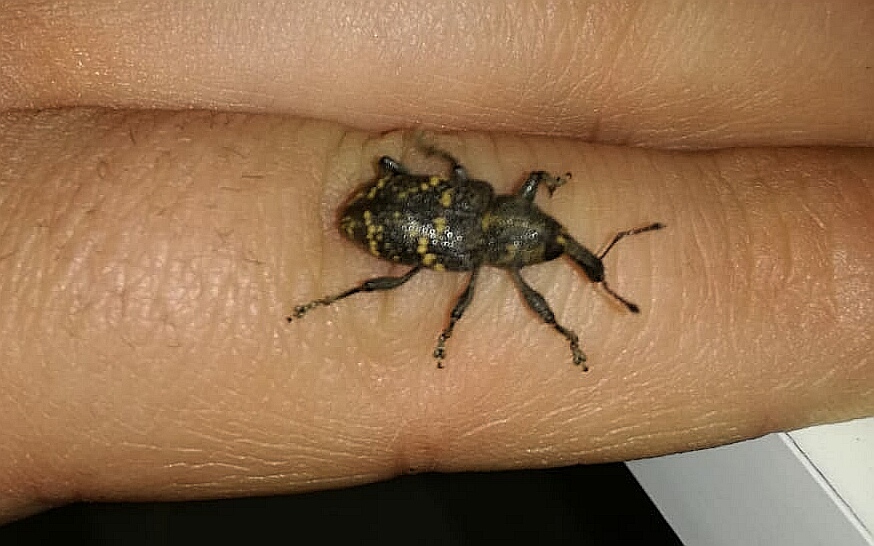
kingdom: Animalia
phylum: Arthropoda
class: Insecta
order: Coleoptera
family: Curculionidae
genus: Hylobius
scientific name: Hylobius abietis
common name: Large pine weevil
